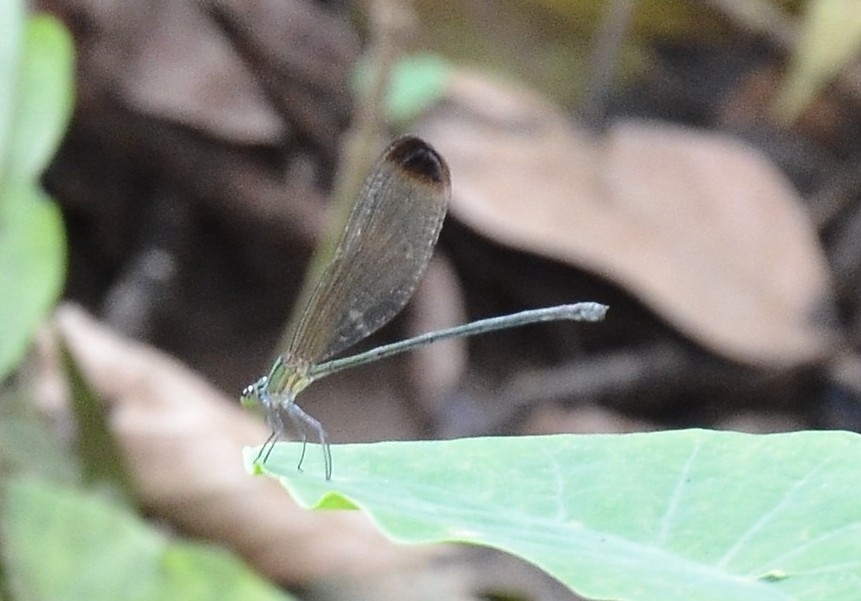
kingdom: Animalia
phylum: Arthropoda
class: Insecta
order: Odonata
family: Calopterygidae
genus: Vestalis
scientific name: Vestalis apicalis
